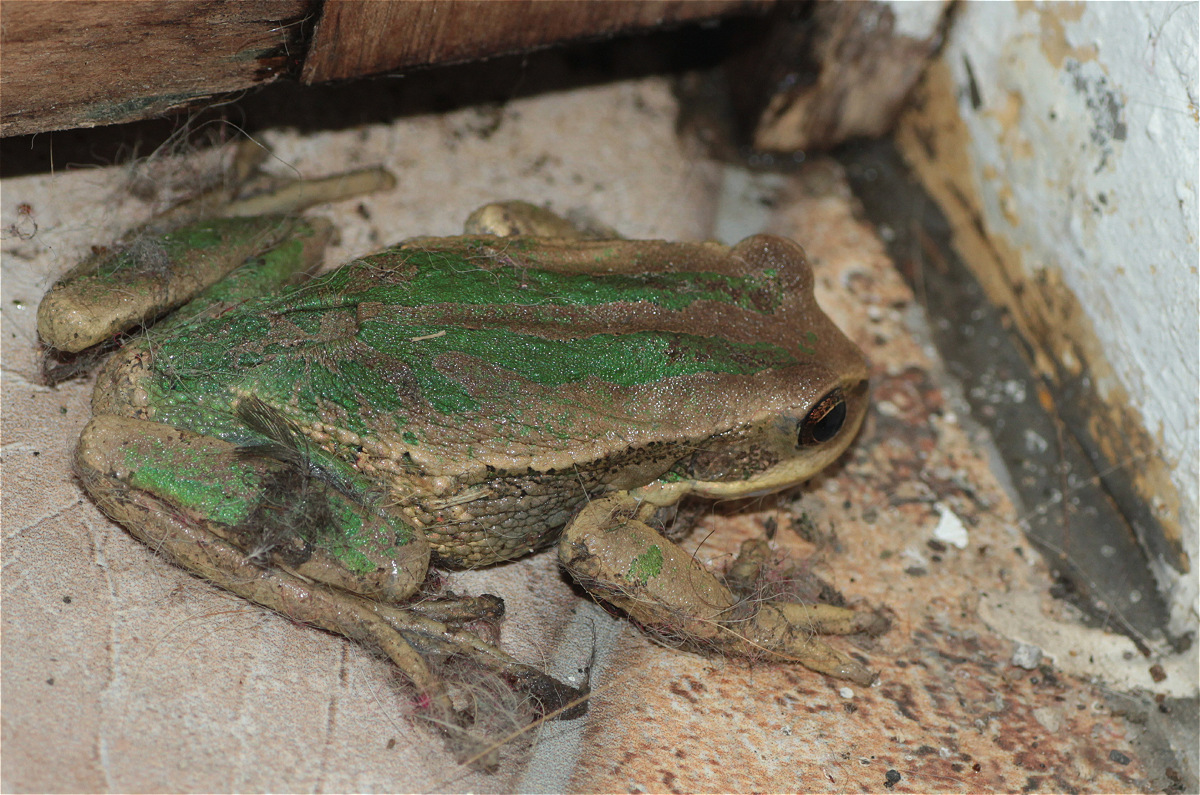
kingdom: Animalia
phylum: Chordata
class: Amphibia
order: Anura
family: Hemiphractidae
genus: Gastrotheca
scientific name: Gastrotheca cuencana
